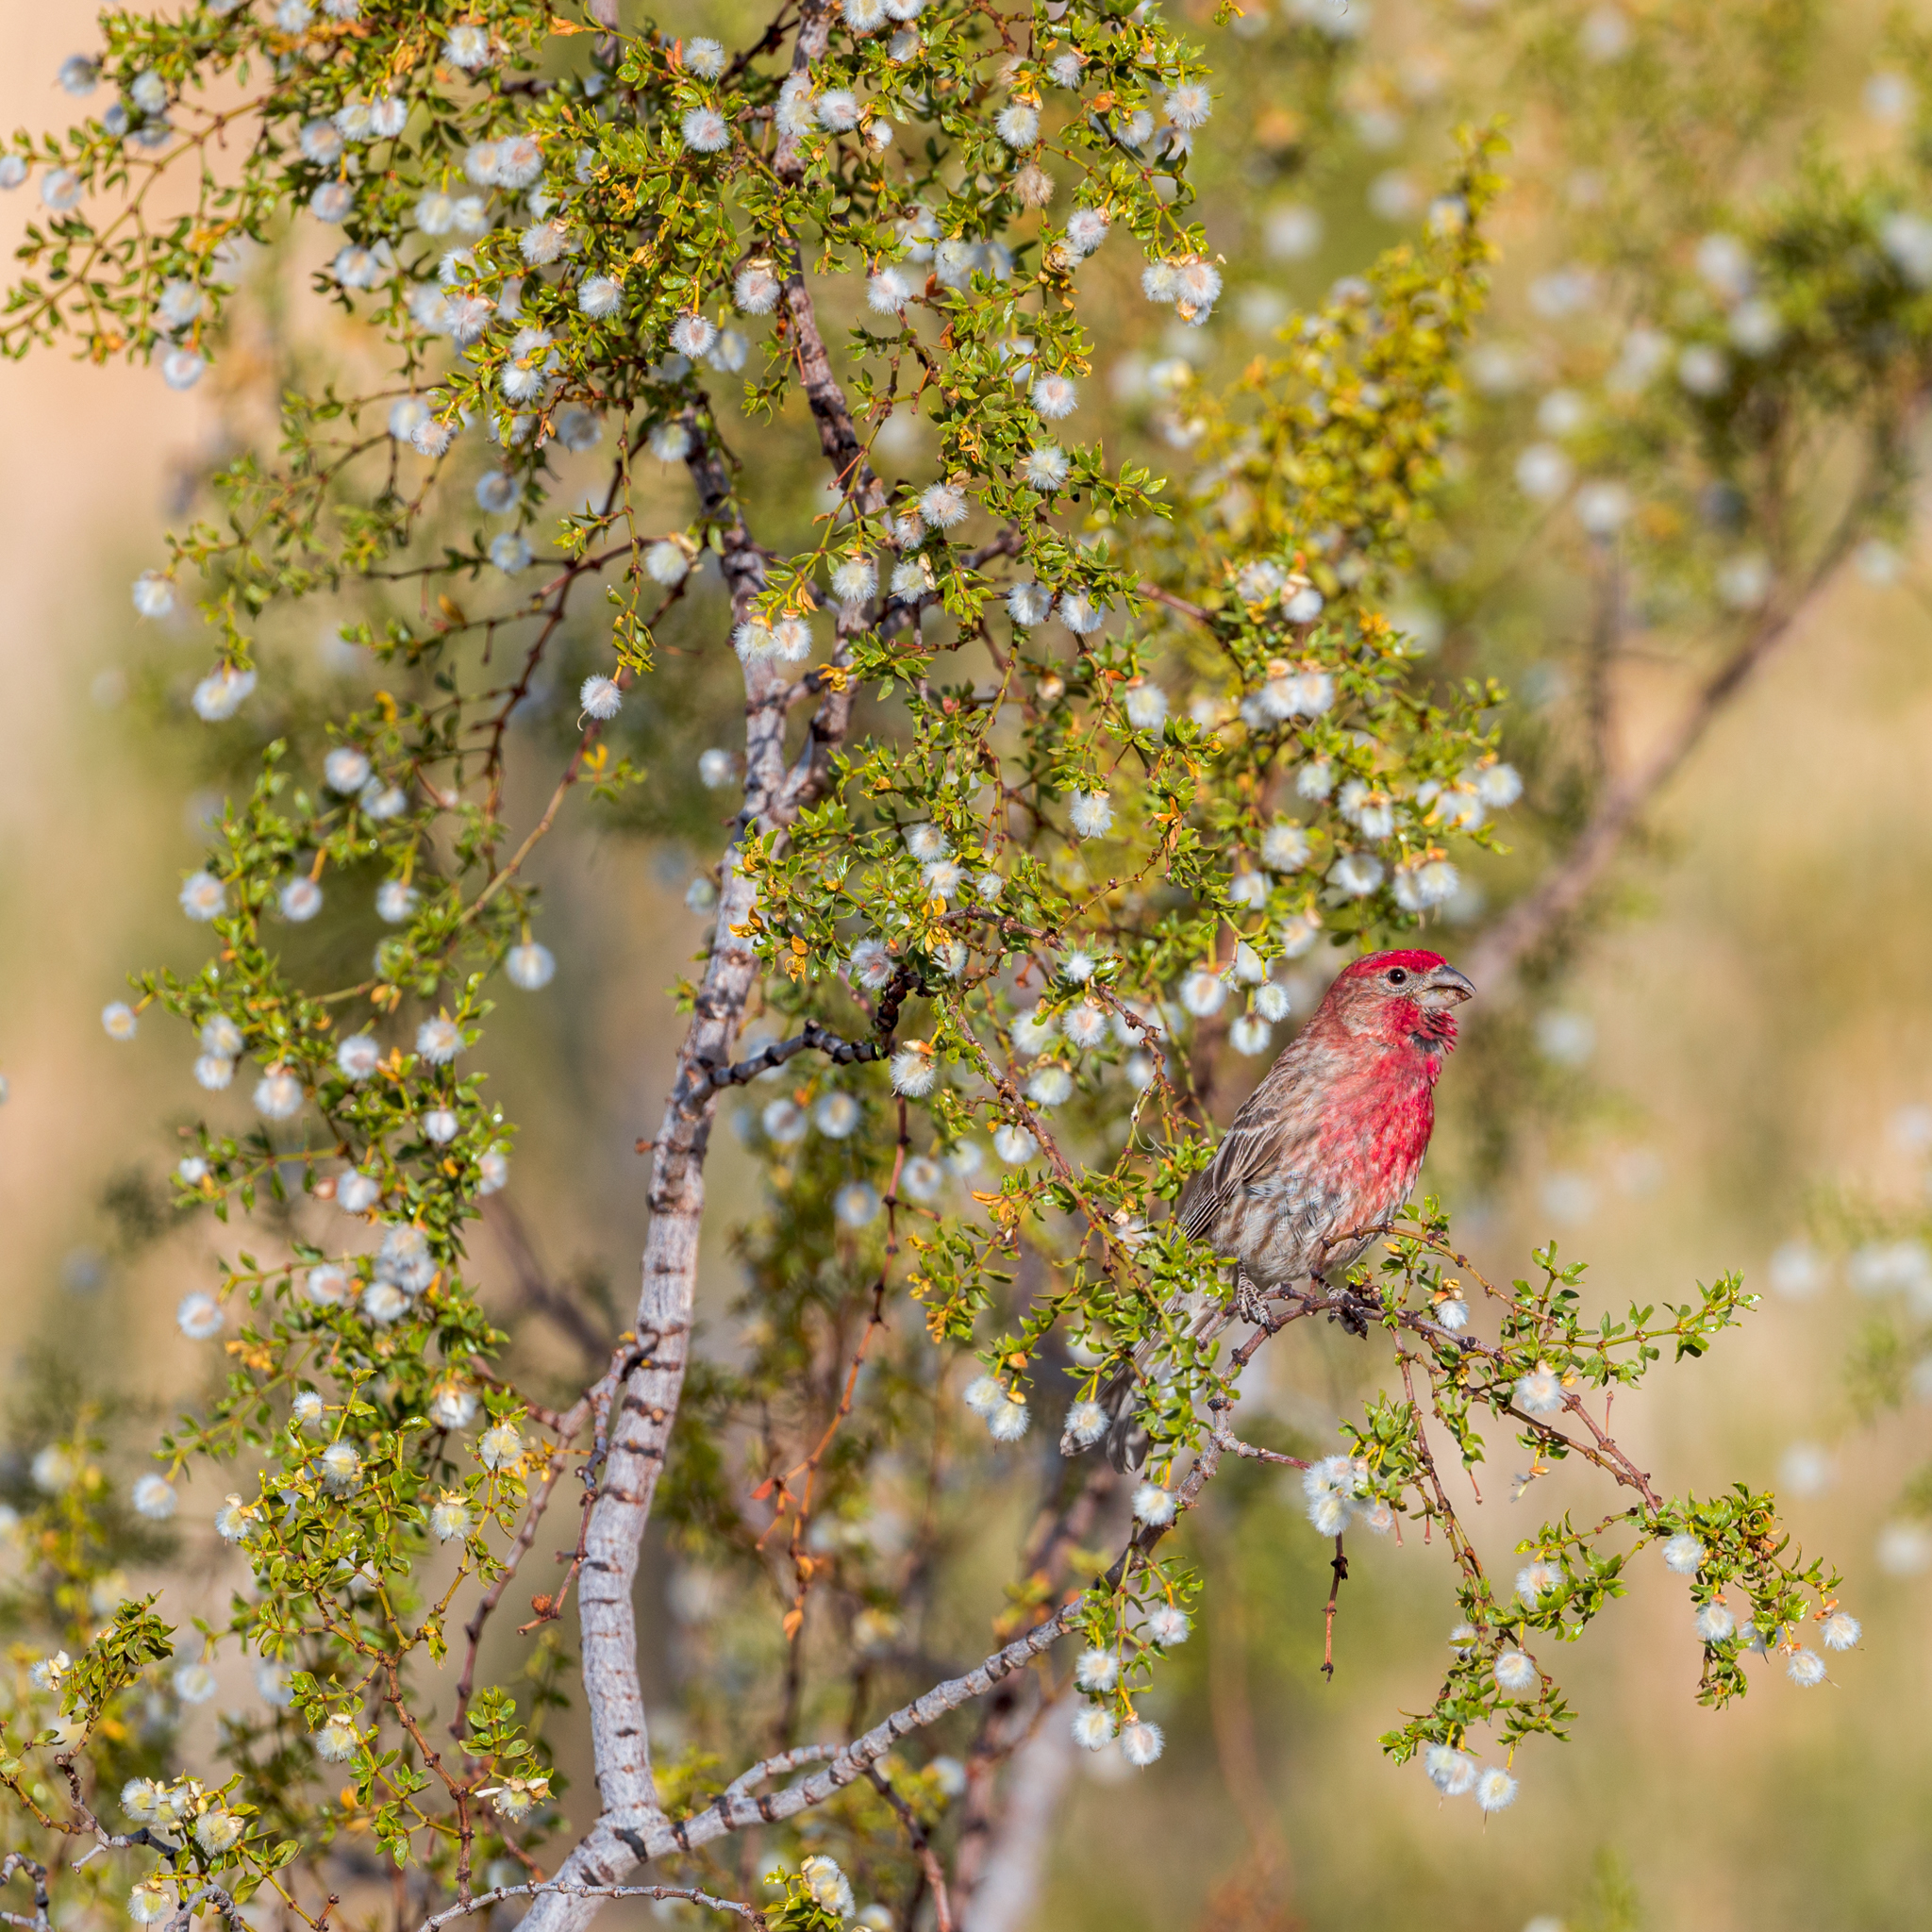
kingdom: Animalia
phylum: Chordata
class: Aves
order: Passeriformes
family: Fringillidae
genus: Haemorhous
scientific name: Haemorhous mexicanus
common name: House finch
